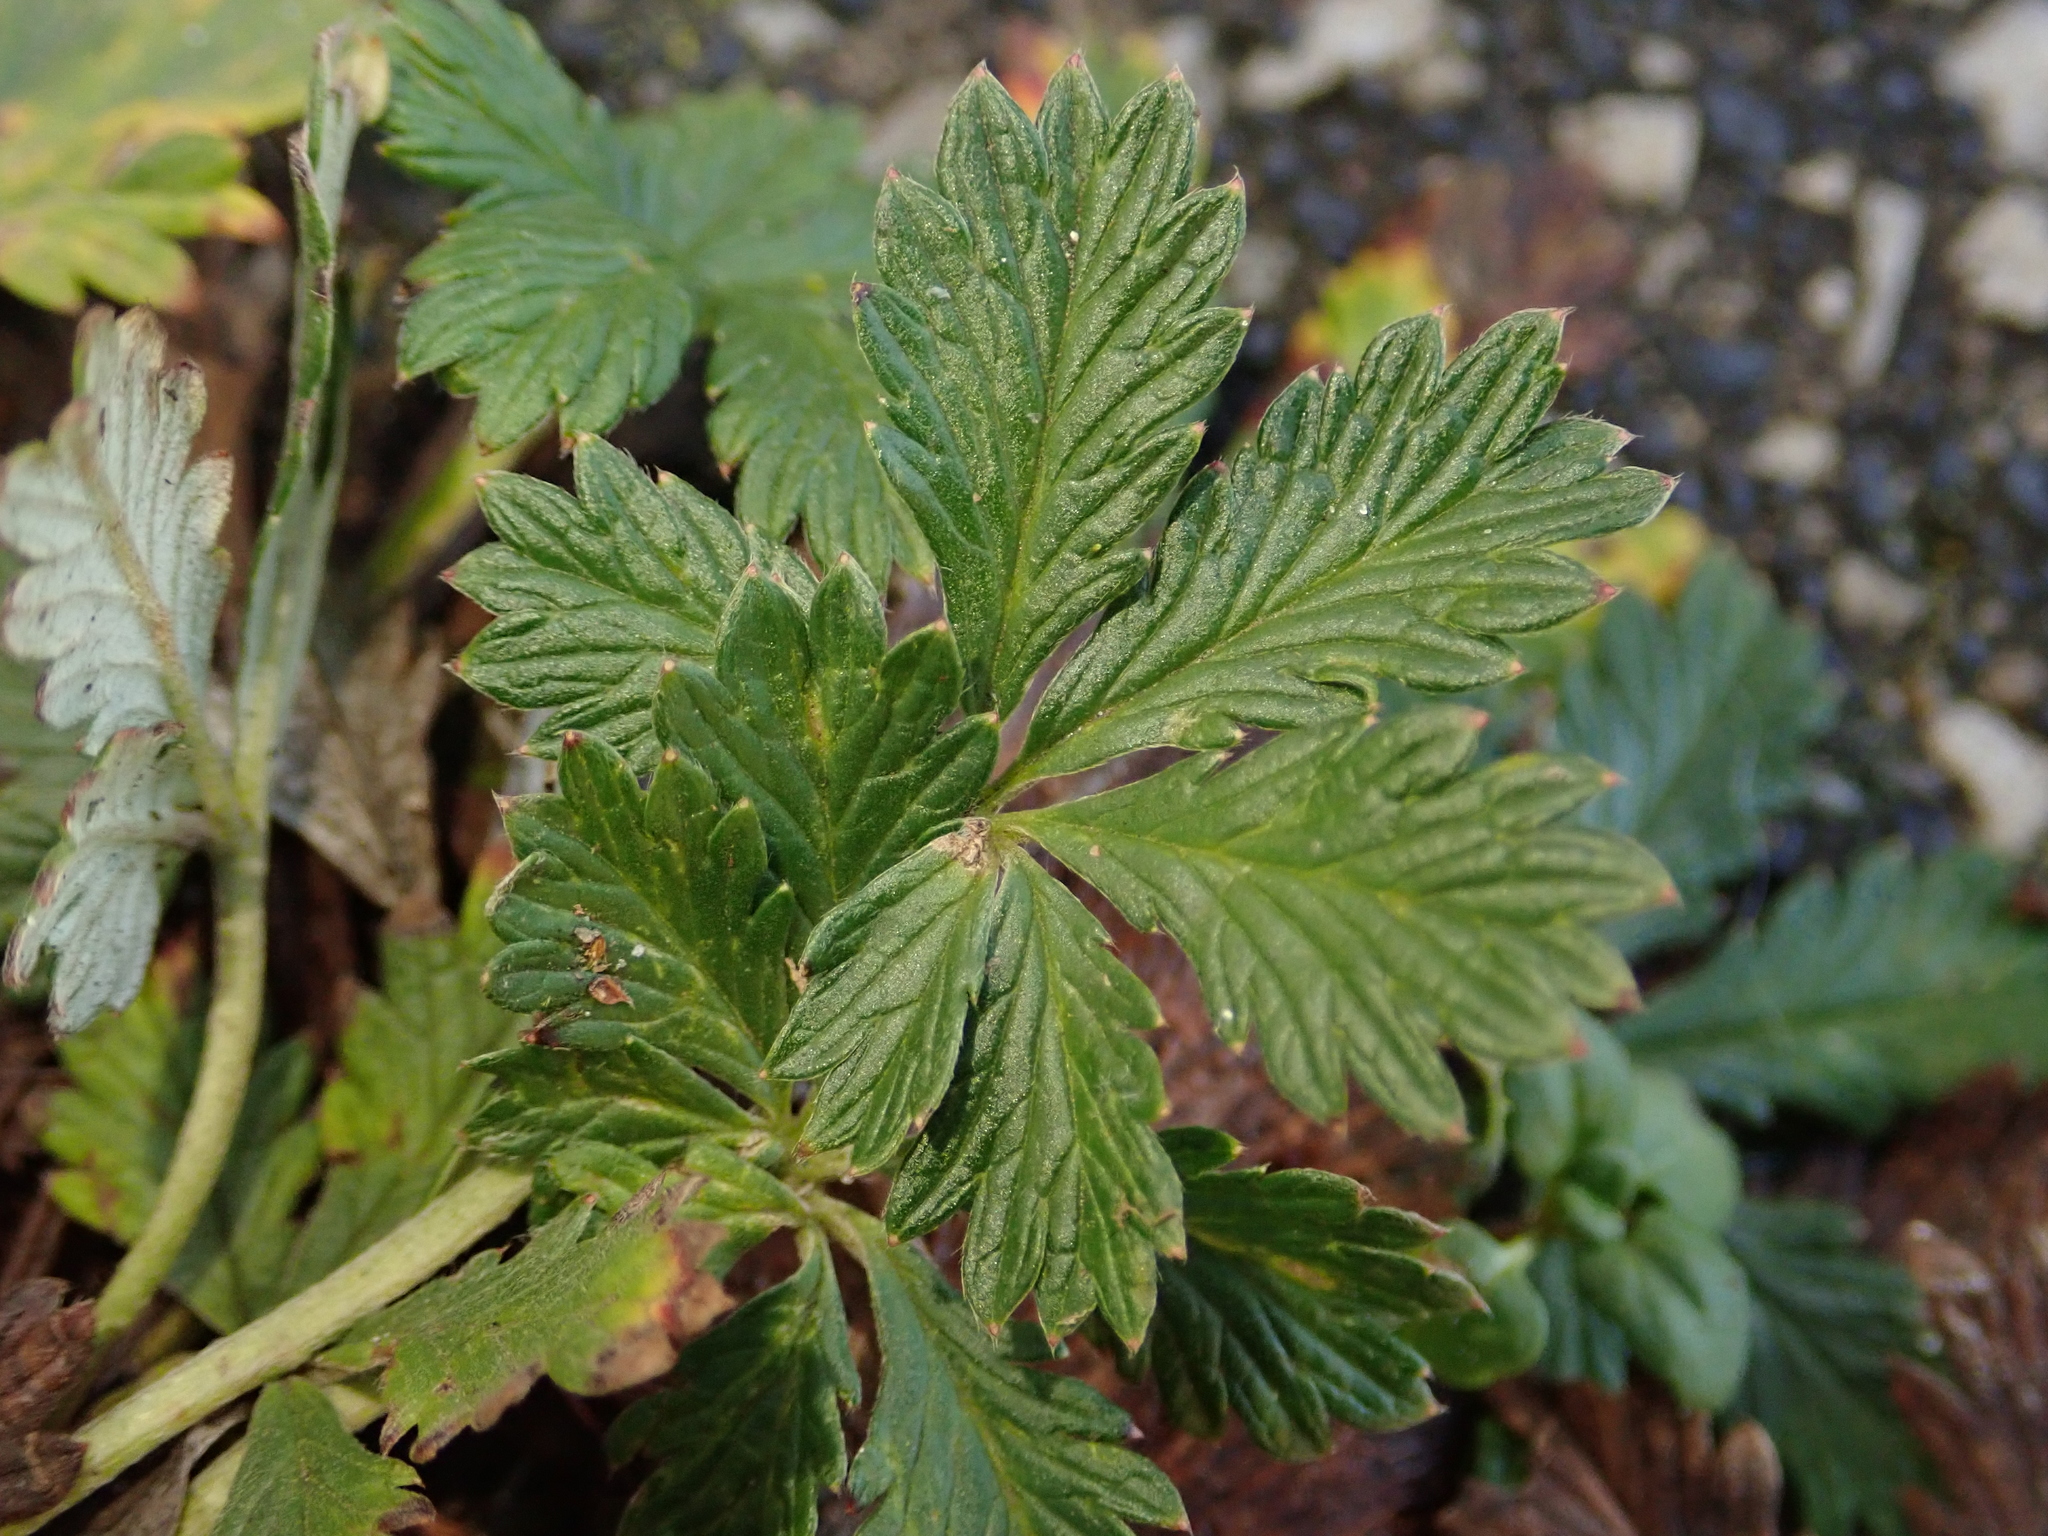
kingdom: Plantae
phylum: Tracheophyta
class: Magnoliopsida
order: Rosales
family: Rosaceae
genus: Potentilla
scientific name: Potentilla argentea
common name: Hoary cinquefoil
